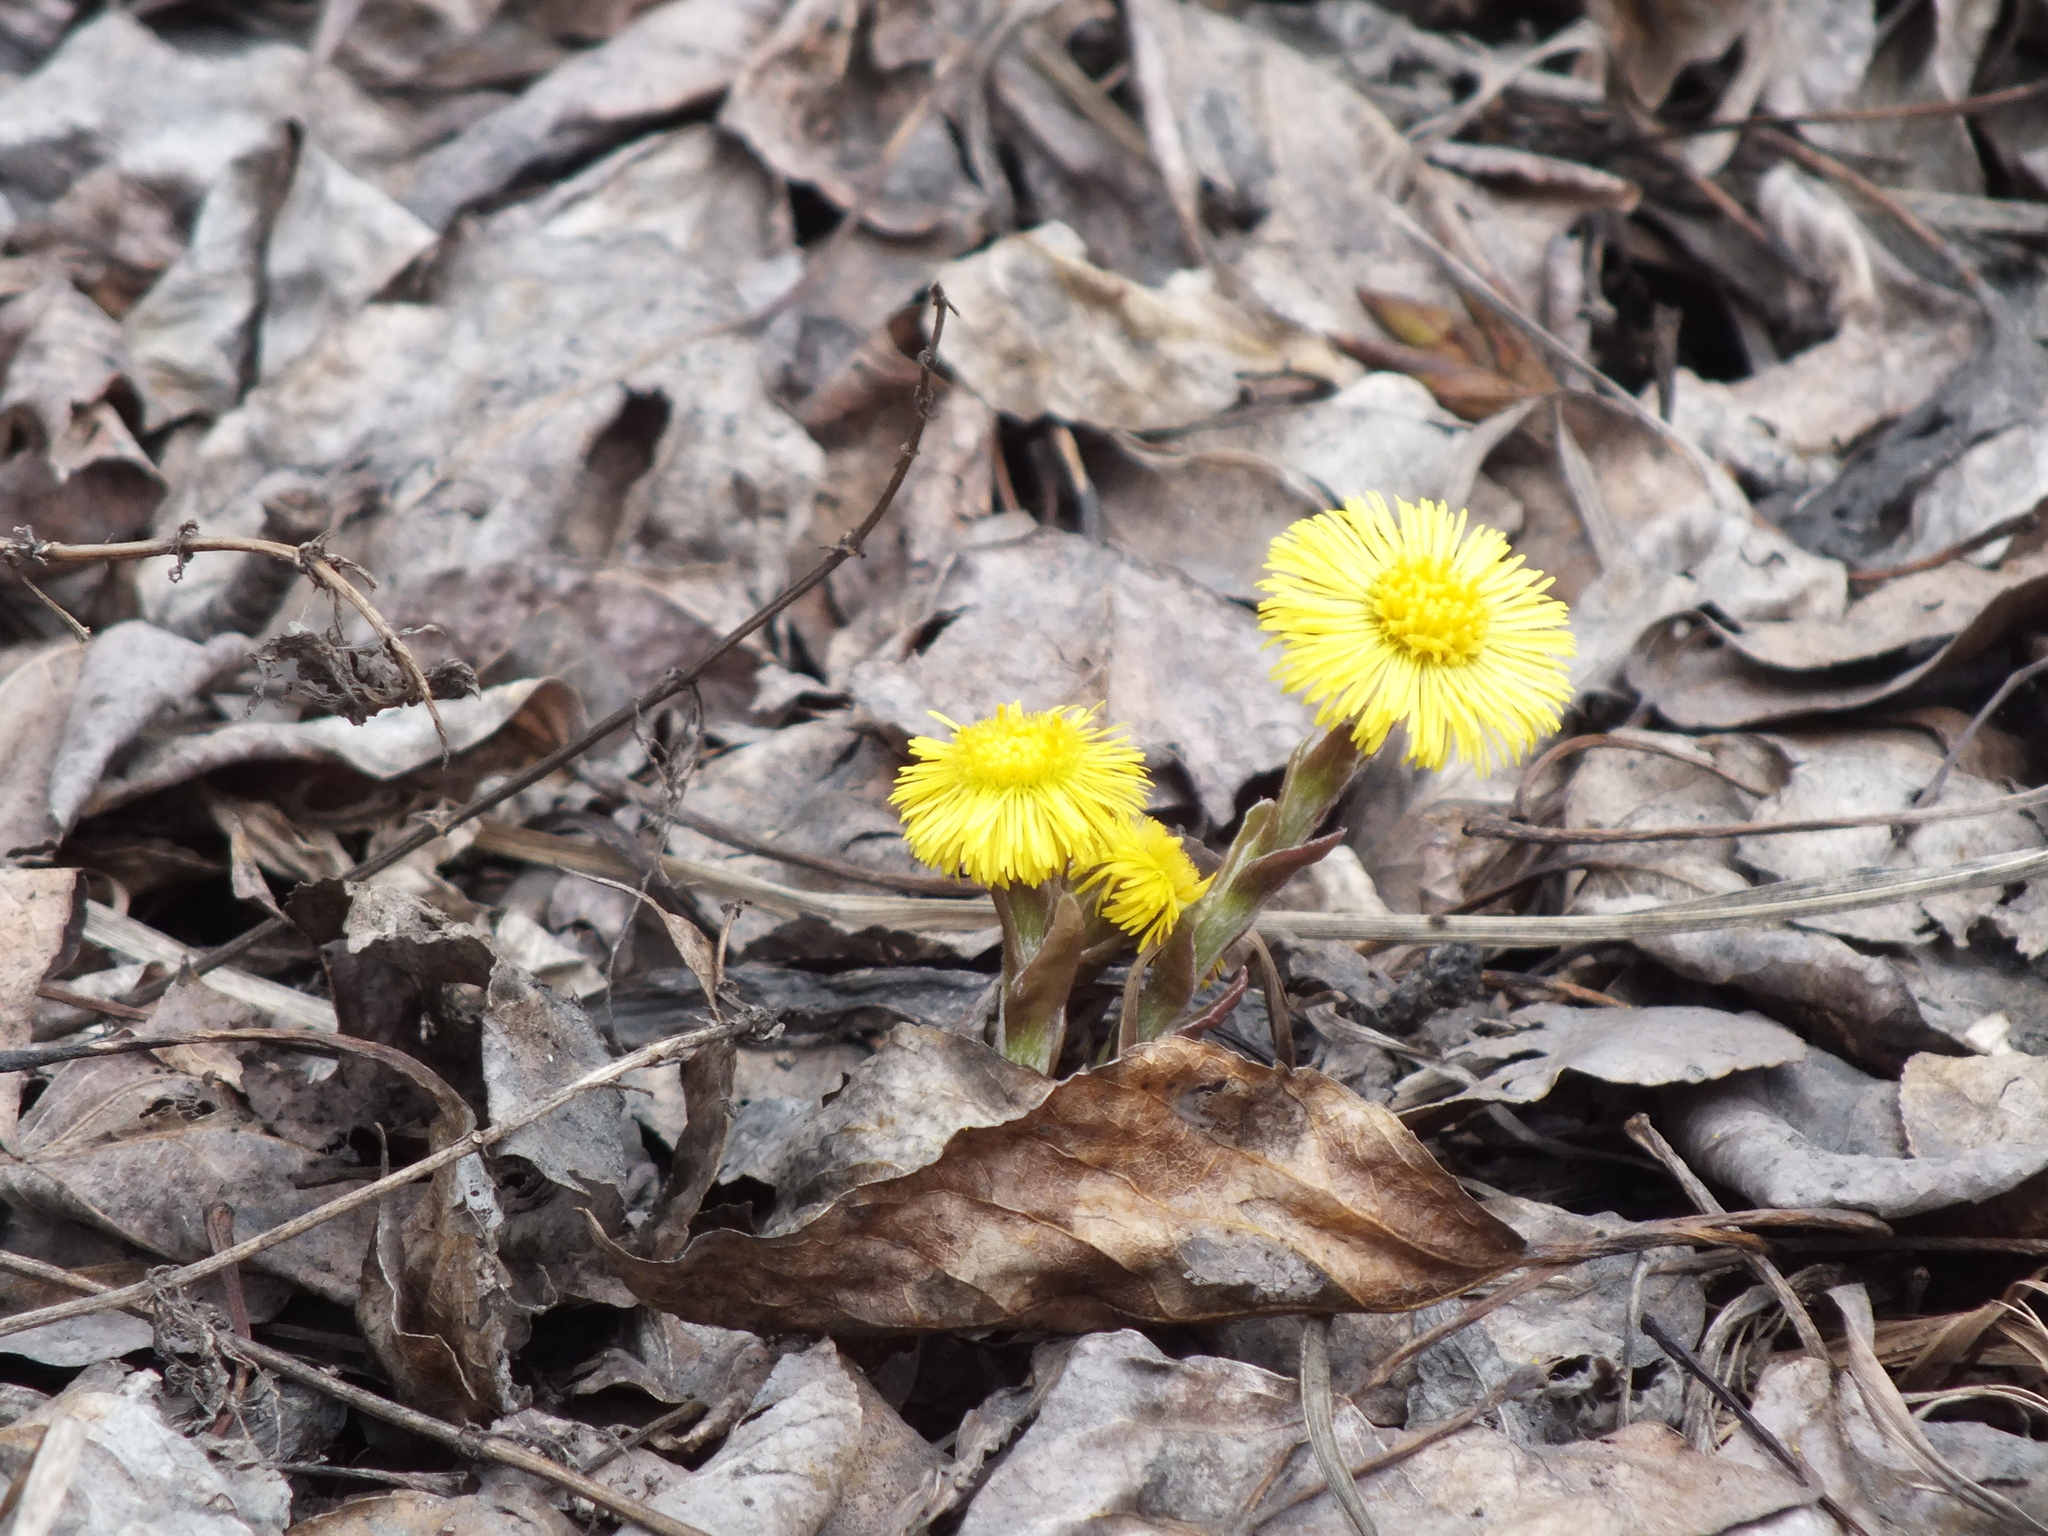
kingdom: Plantae
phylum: Tracheophyta
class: Magnoliopsida
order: Asterales
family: Asteraceae
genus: Tussilago
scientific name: Tussilago farfara
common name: Coltsfoot
